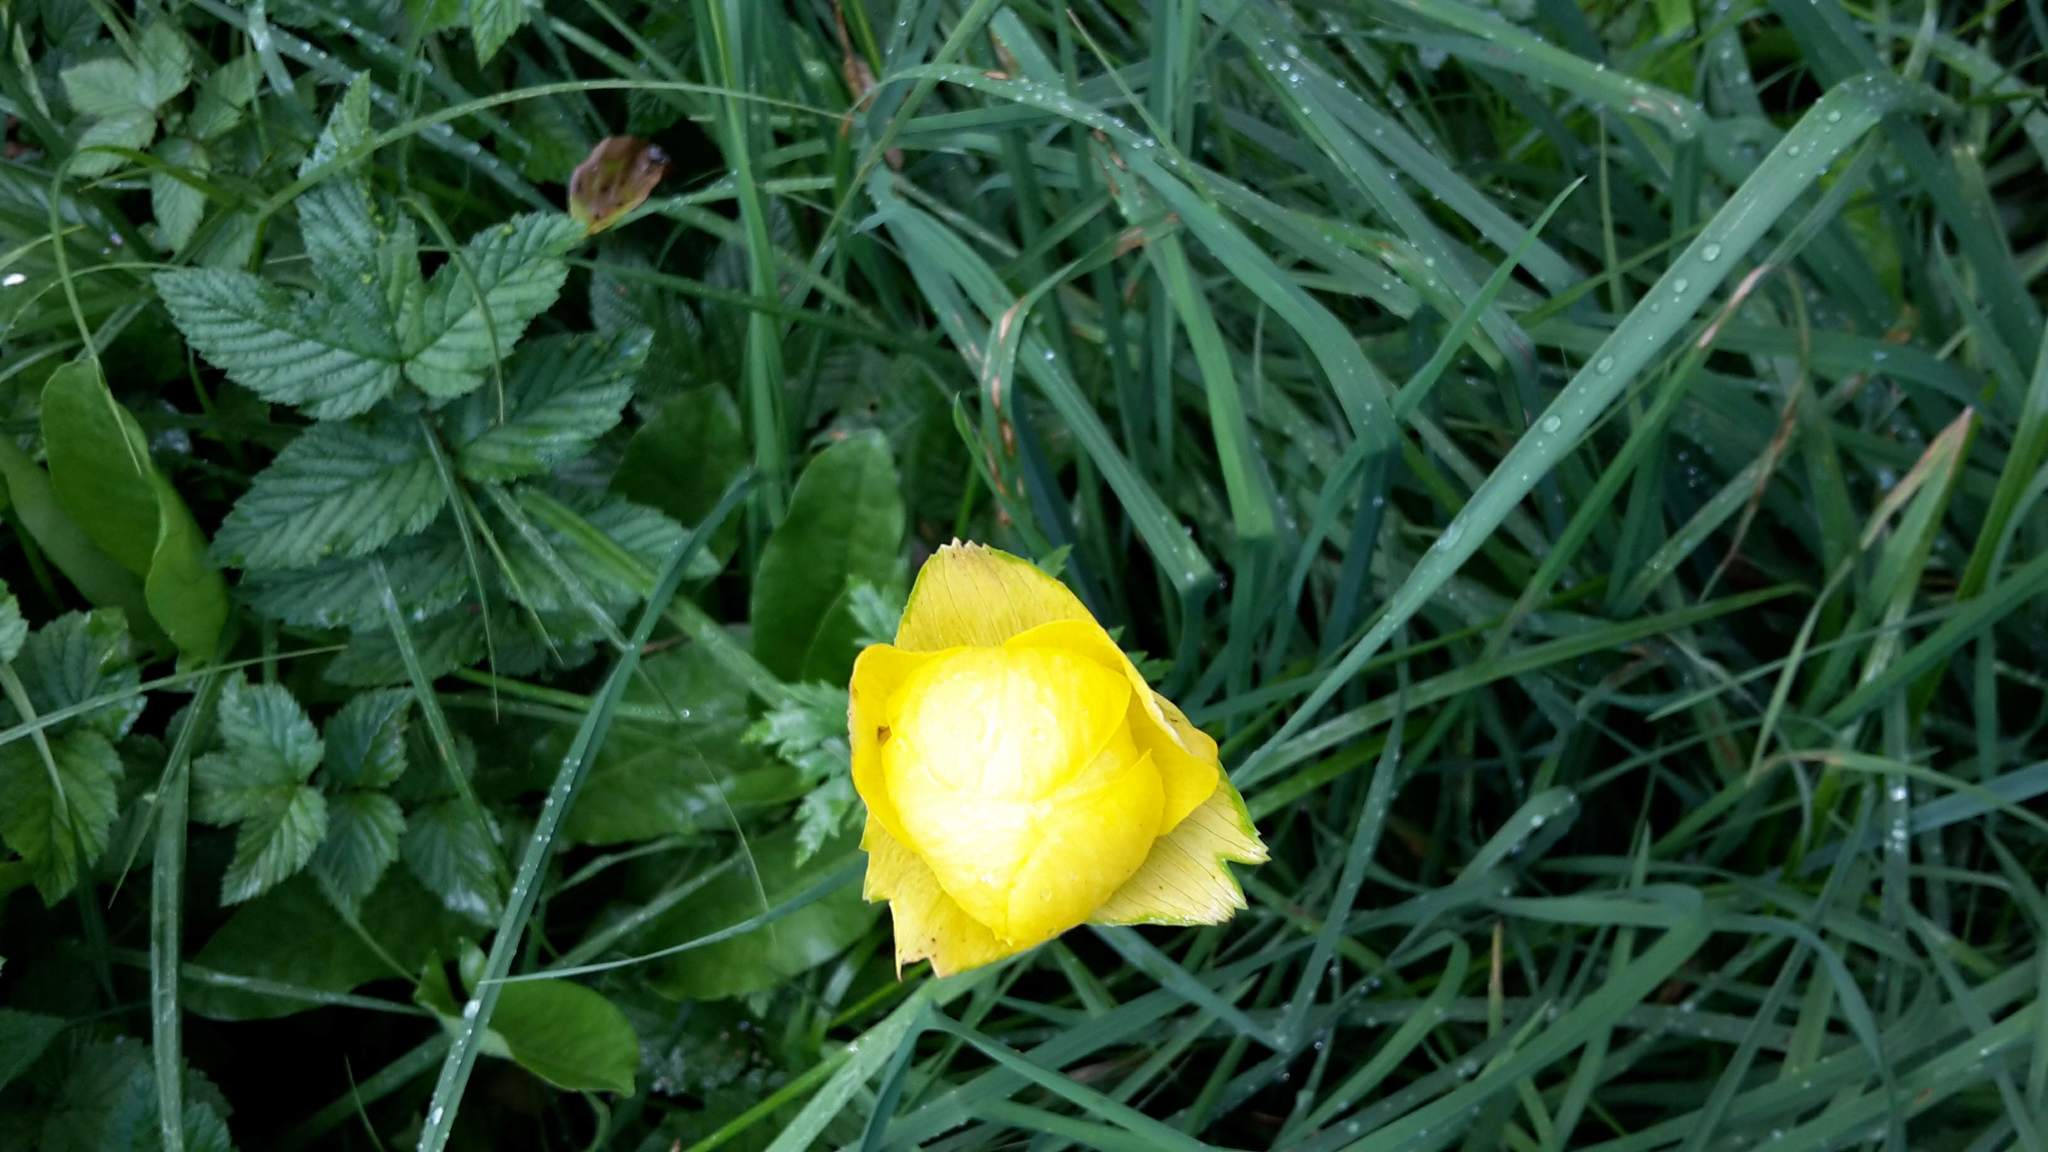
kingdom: Plantae
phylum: Tracheophyta
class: Magnoliopsida
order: Ranunculales
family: Ranunculaceae
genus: Trollius
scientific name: Trollius europaeus
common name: European globeflower
